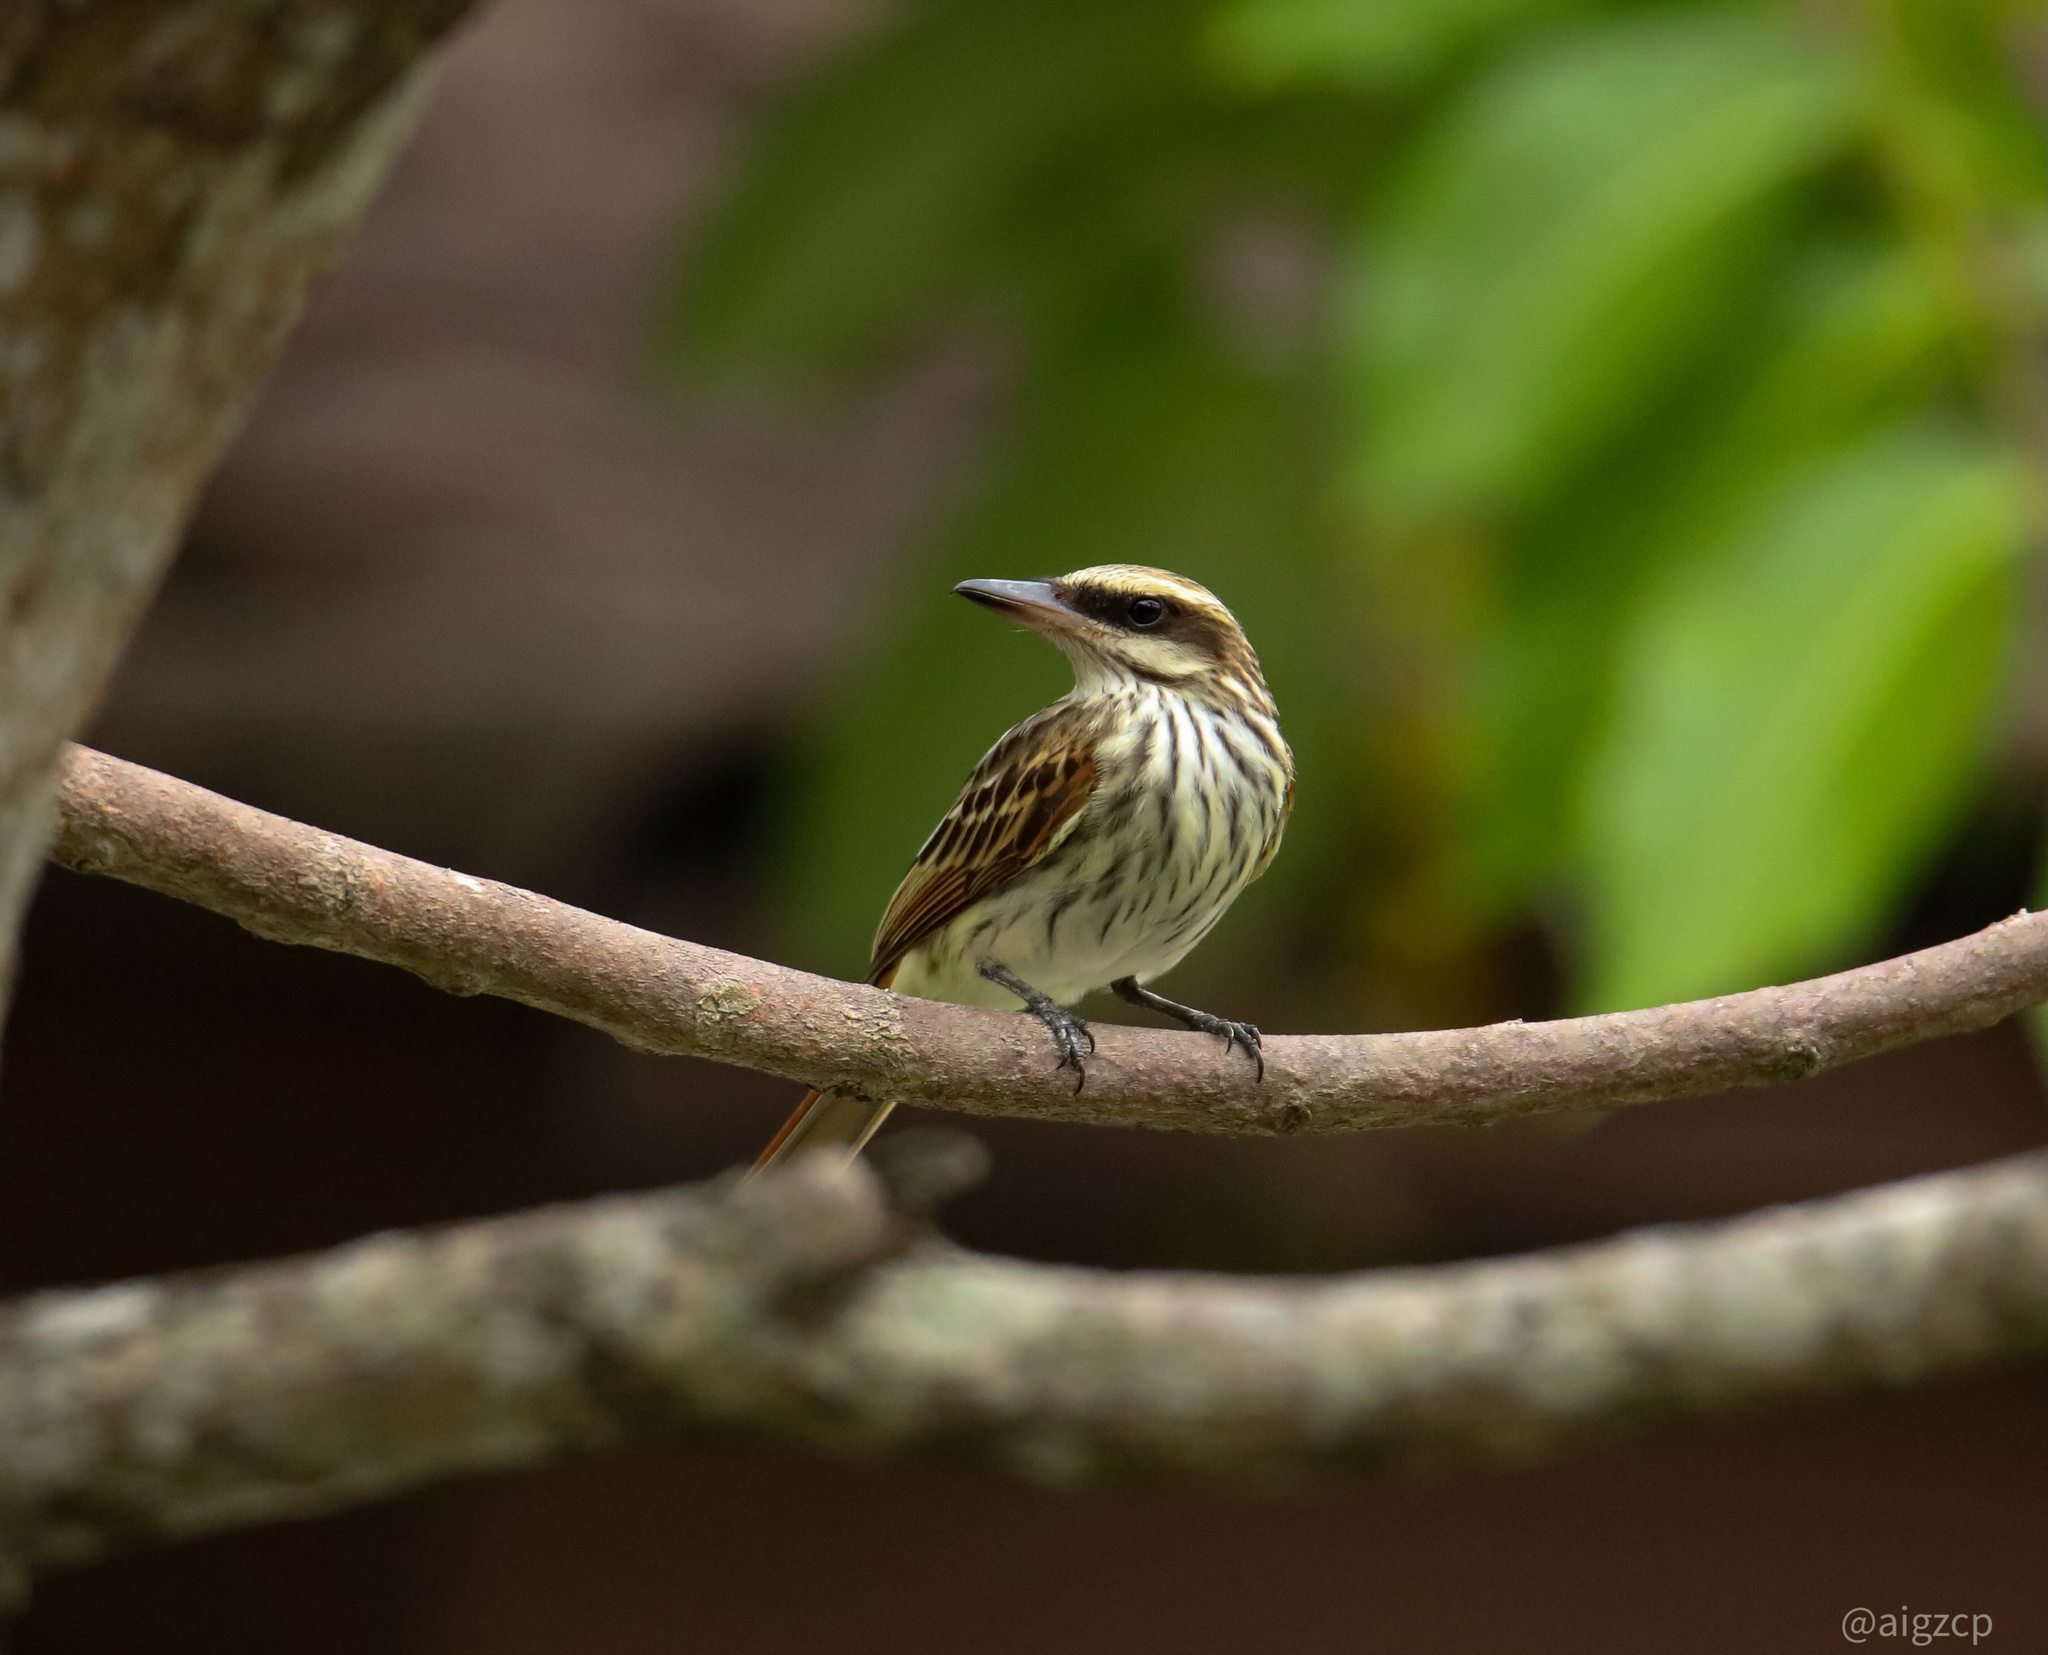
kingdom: Animalia
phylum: Chordata
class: Aves
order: Passeriformes
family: Tyrannidae
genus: Myiodynastes
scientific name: Myiodynastes maculatus
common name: Streaked flycatcher
